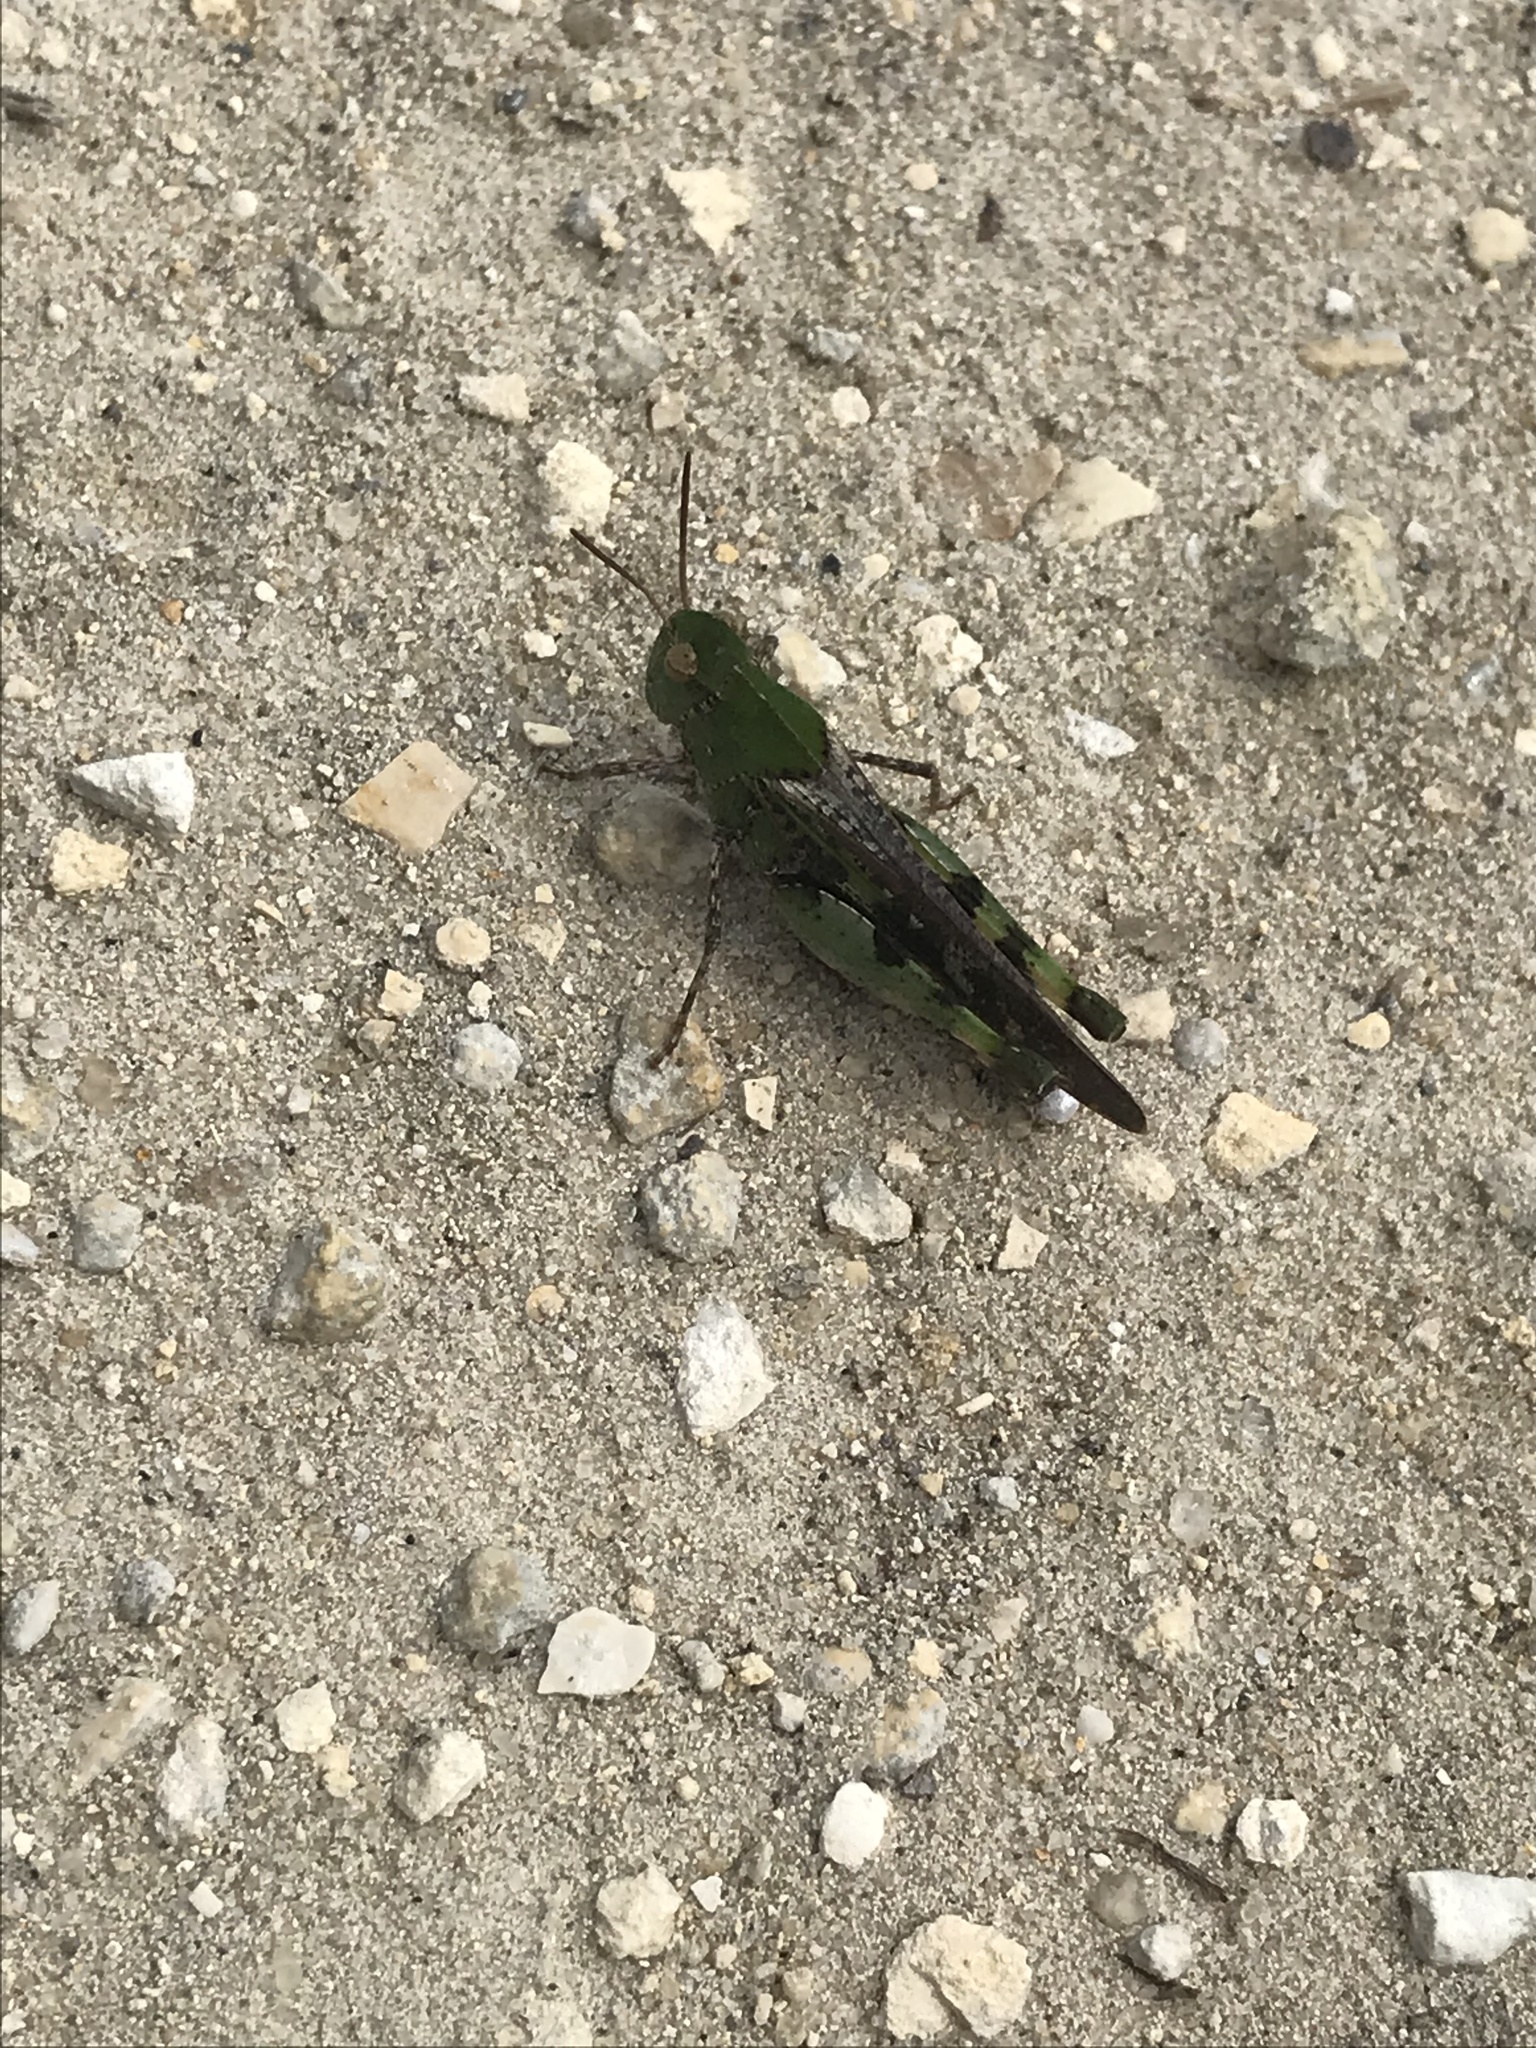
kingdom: Animalia
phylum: Arthropoda
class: Insecta
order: Orthoptera
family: Acrididae
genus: Chortophaga
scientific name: Chortophaga australior
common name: Southern green-striped grasshopper
